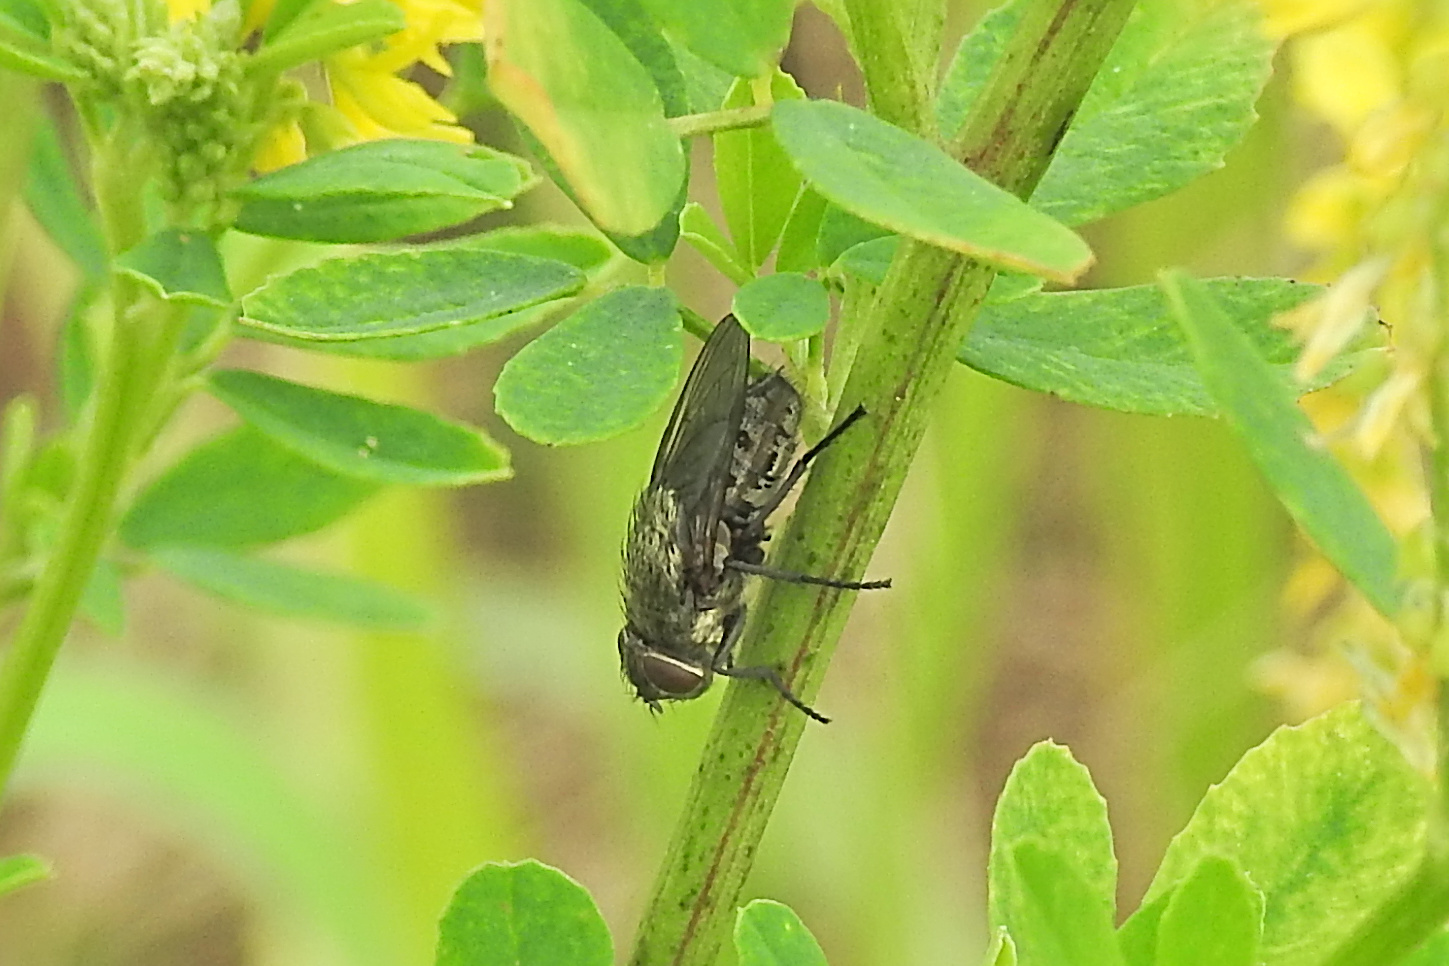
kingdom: Animalia
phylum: Arthropoda
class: Insecta
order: Diptera
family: Polleniidae
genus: Pollenia
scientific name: Pollenia
